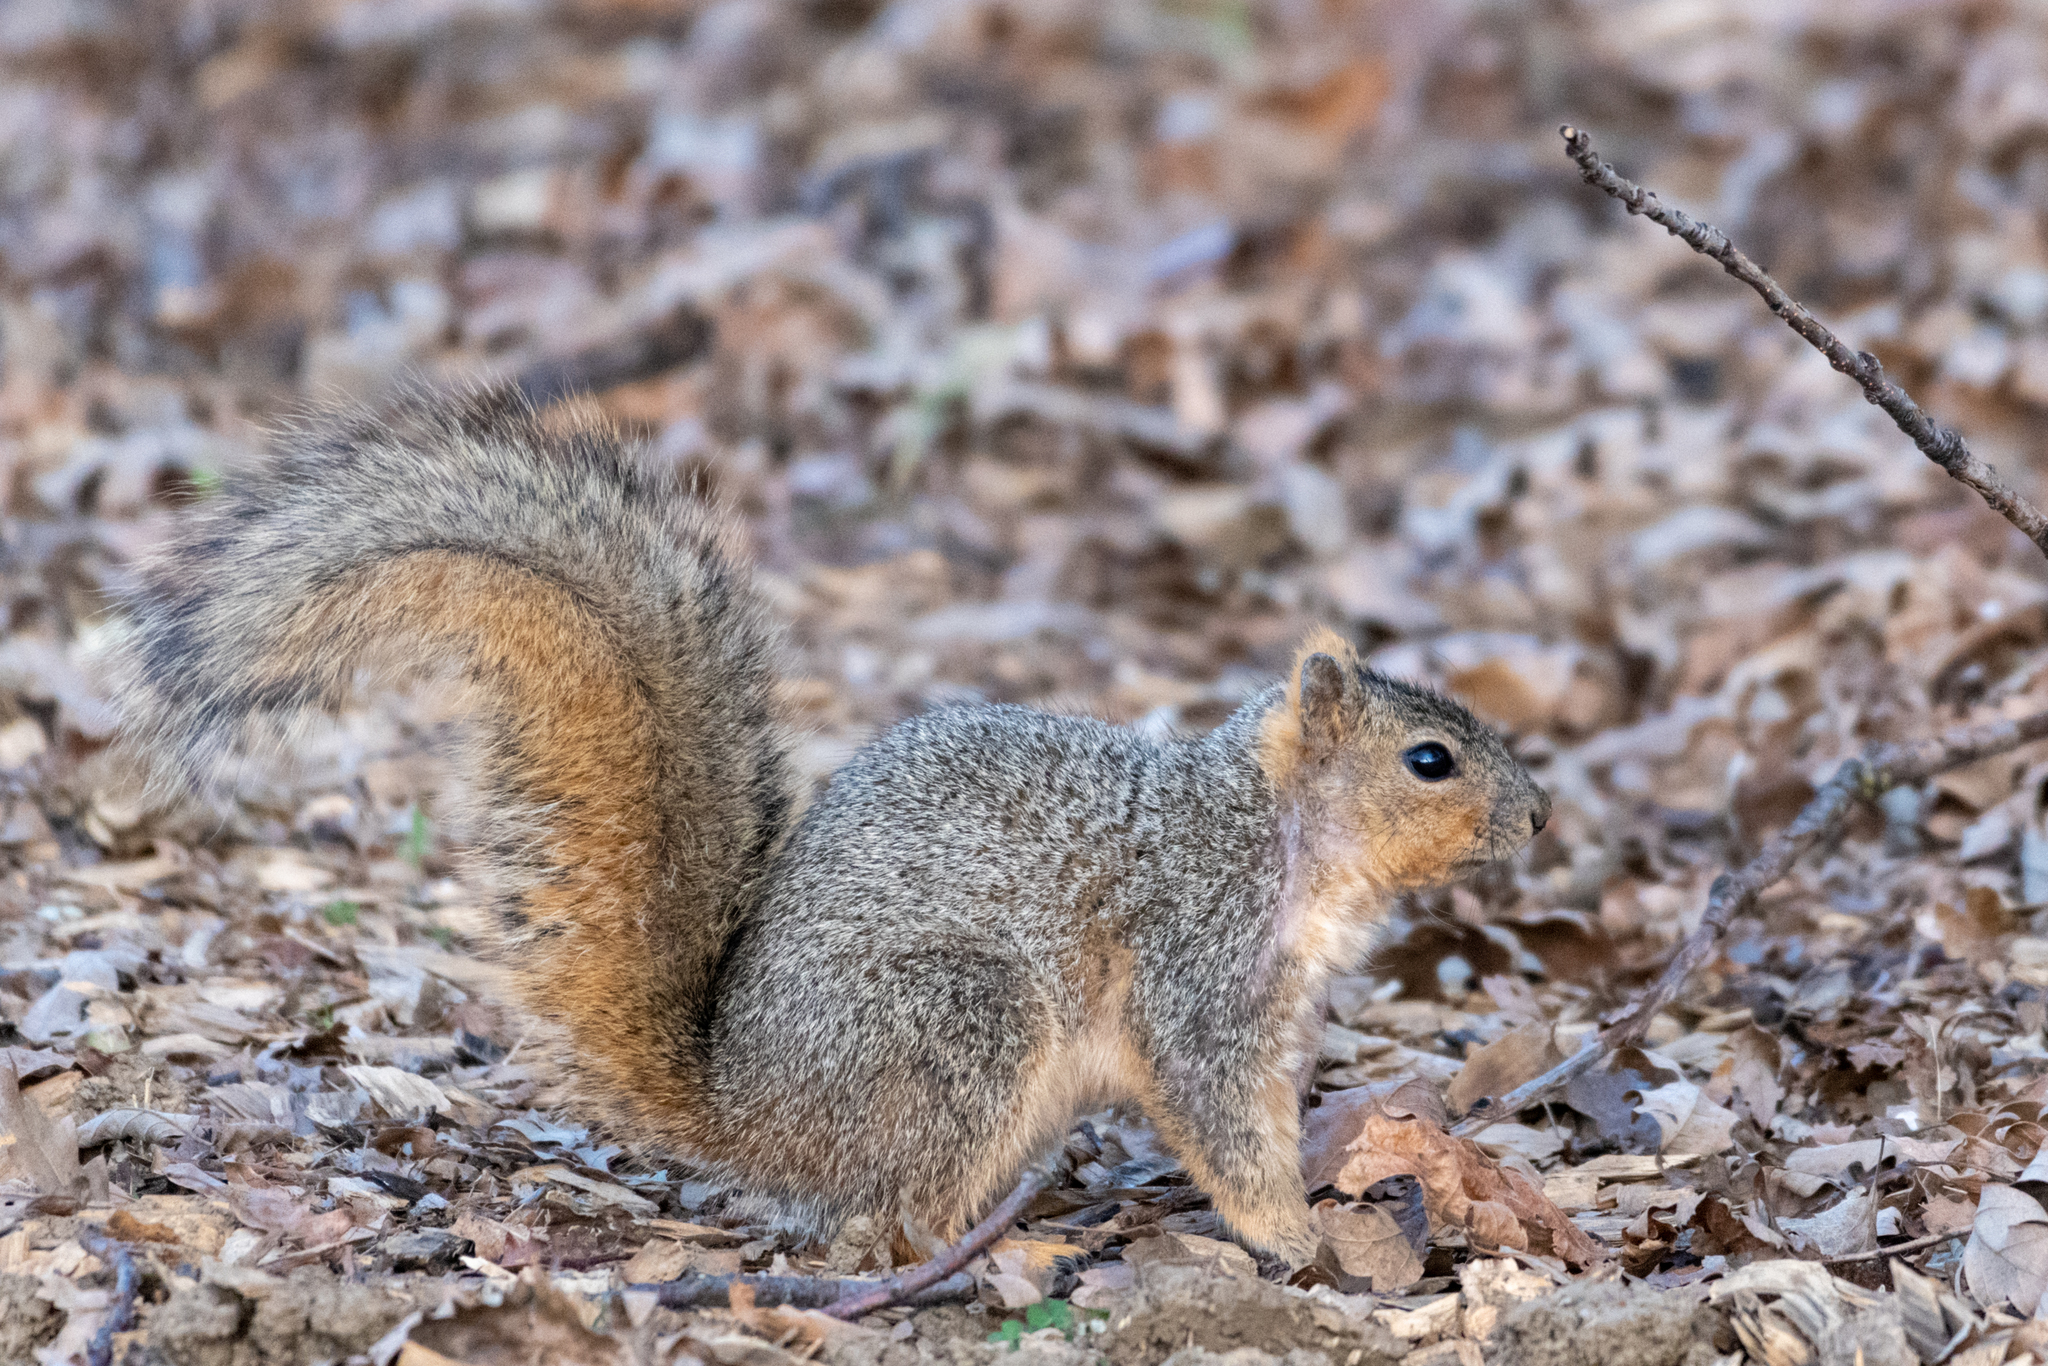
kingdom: Animalia
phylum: Chordata
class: Mammalia
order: Rodentia
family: Sciuridae
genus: Sciurus
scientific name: Sciurus niger
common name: Fox squirrel
